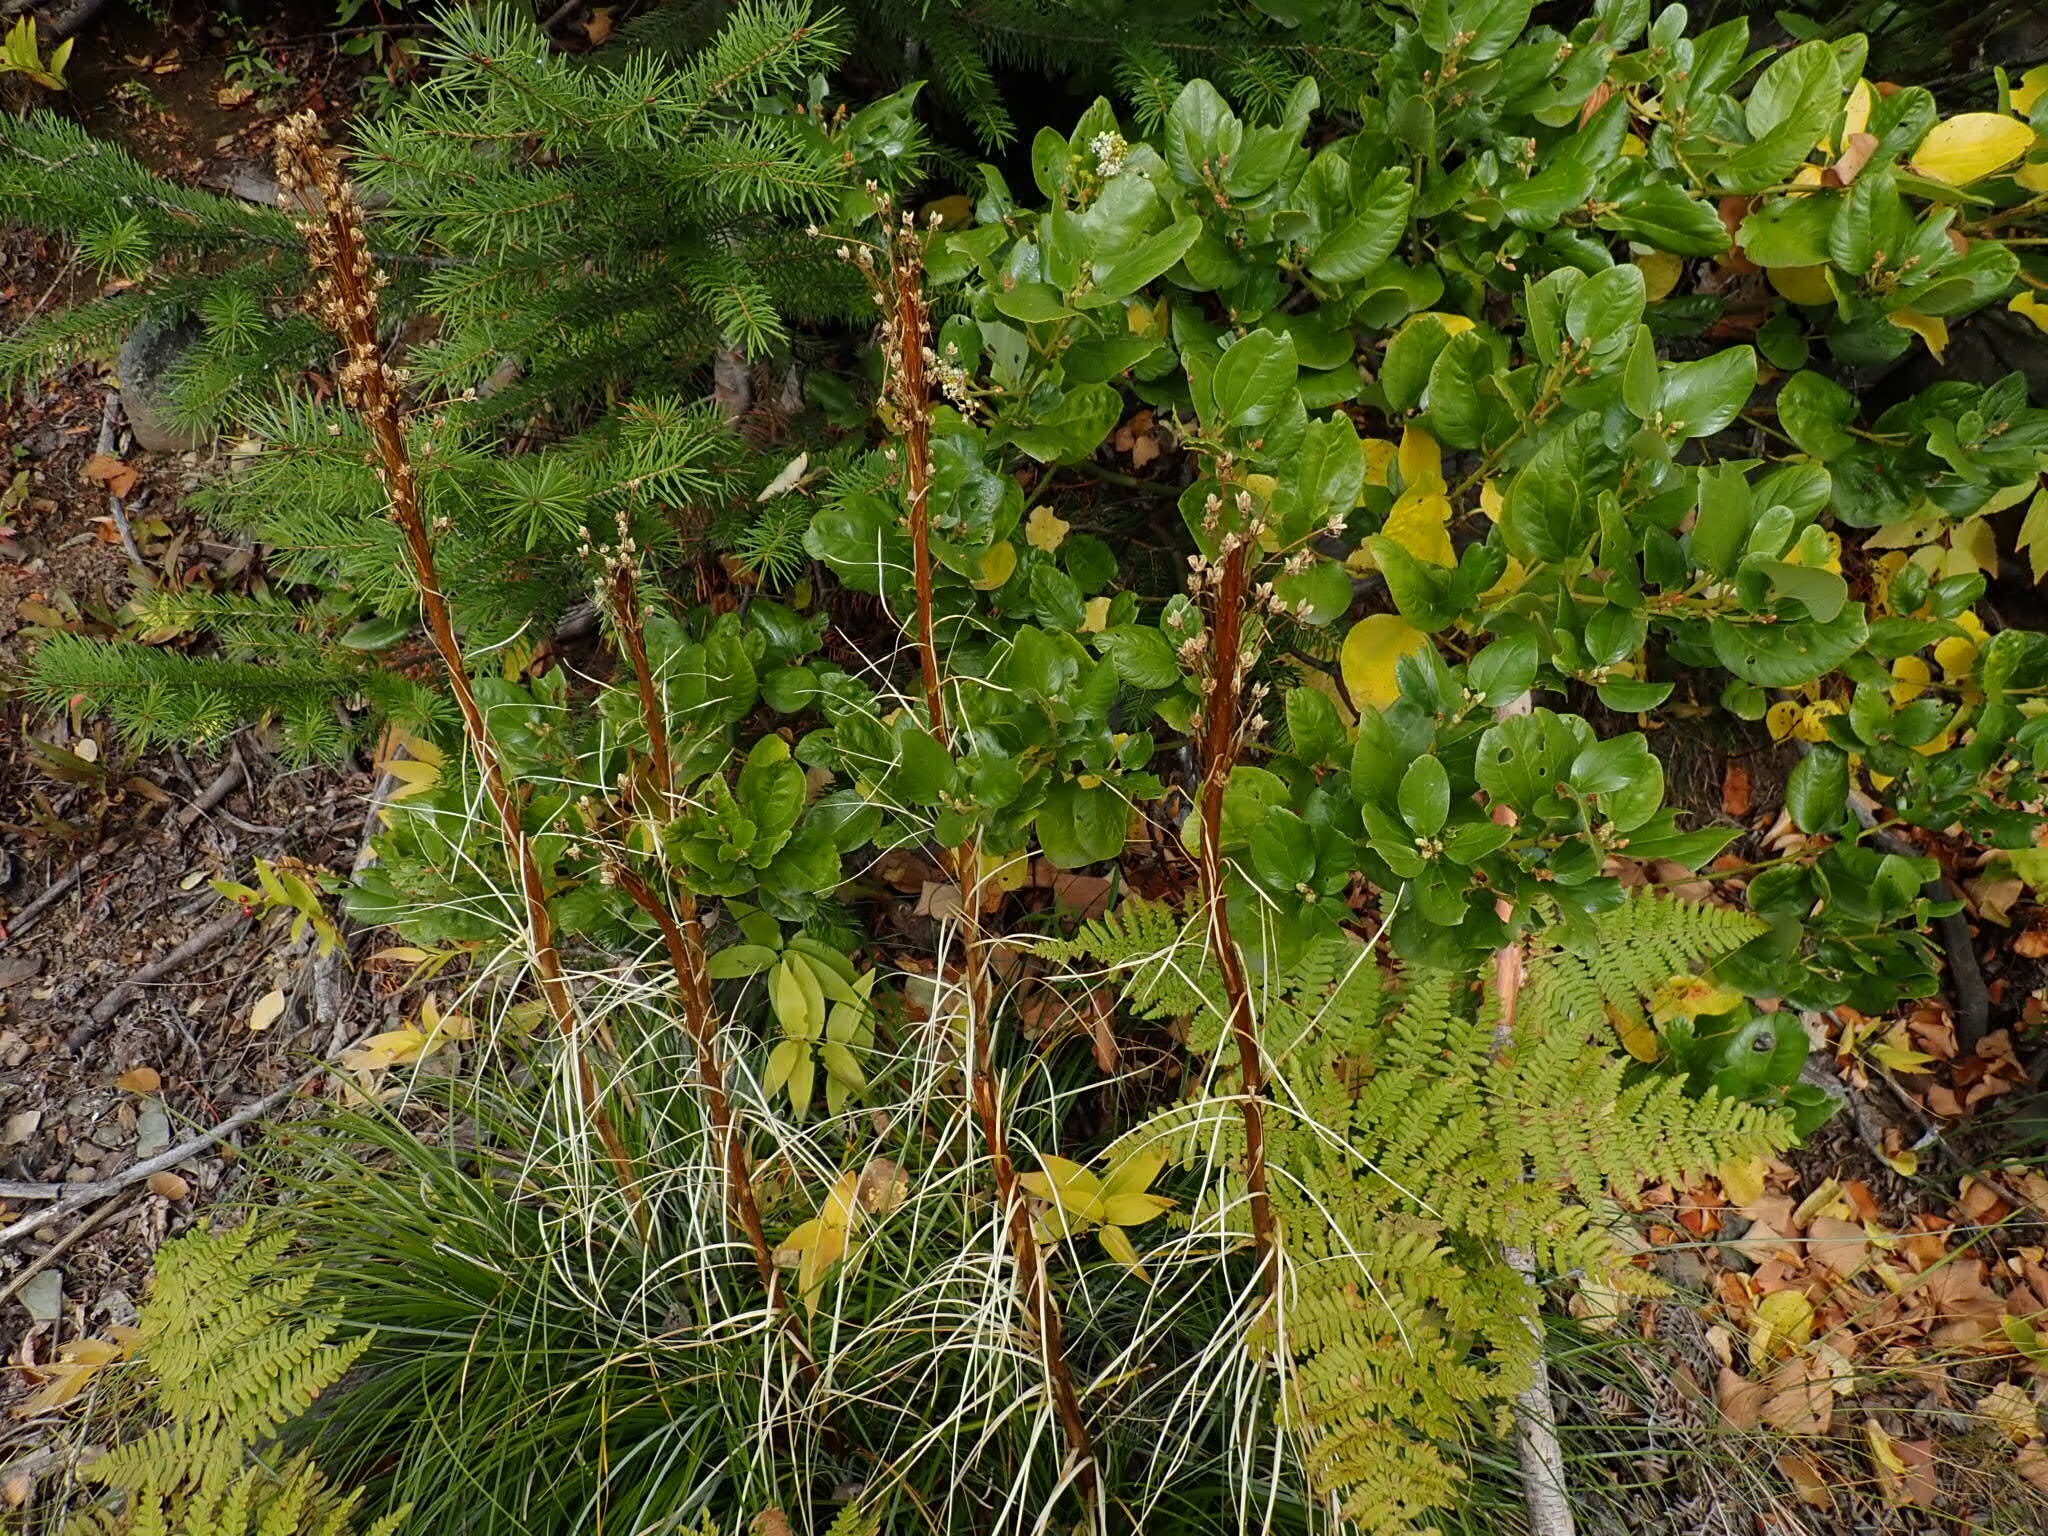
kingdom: Plantae
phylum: Tracheophyta
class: Liliopsida
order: Liliales
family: Melanthiaceae
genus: Xerophyllum
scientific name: Xerophyllum tenax
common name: Bear-grass
